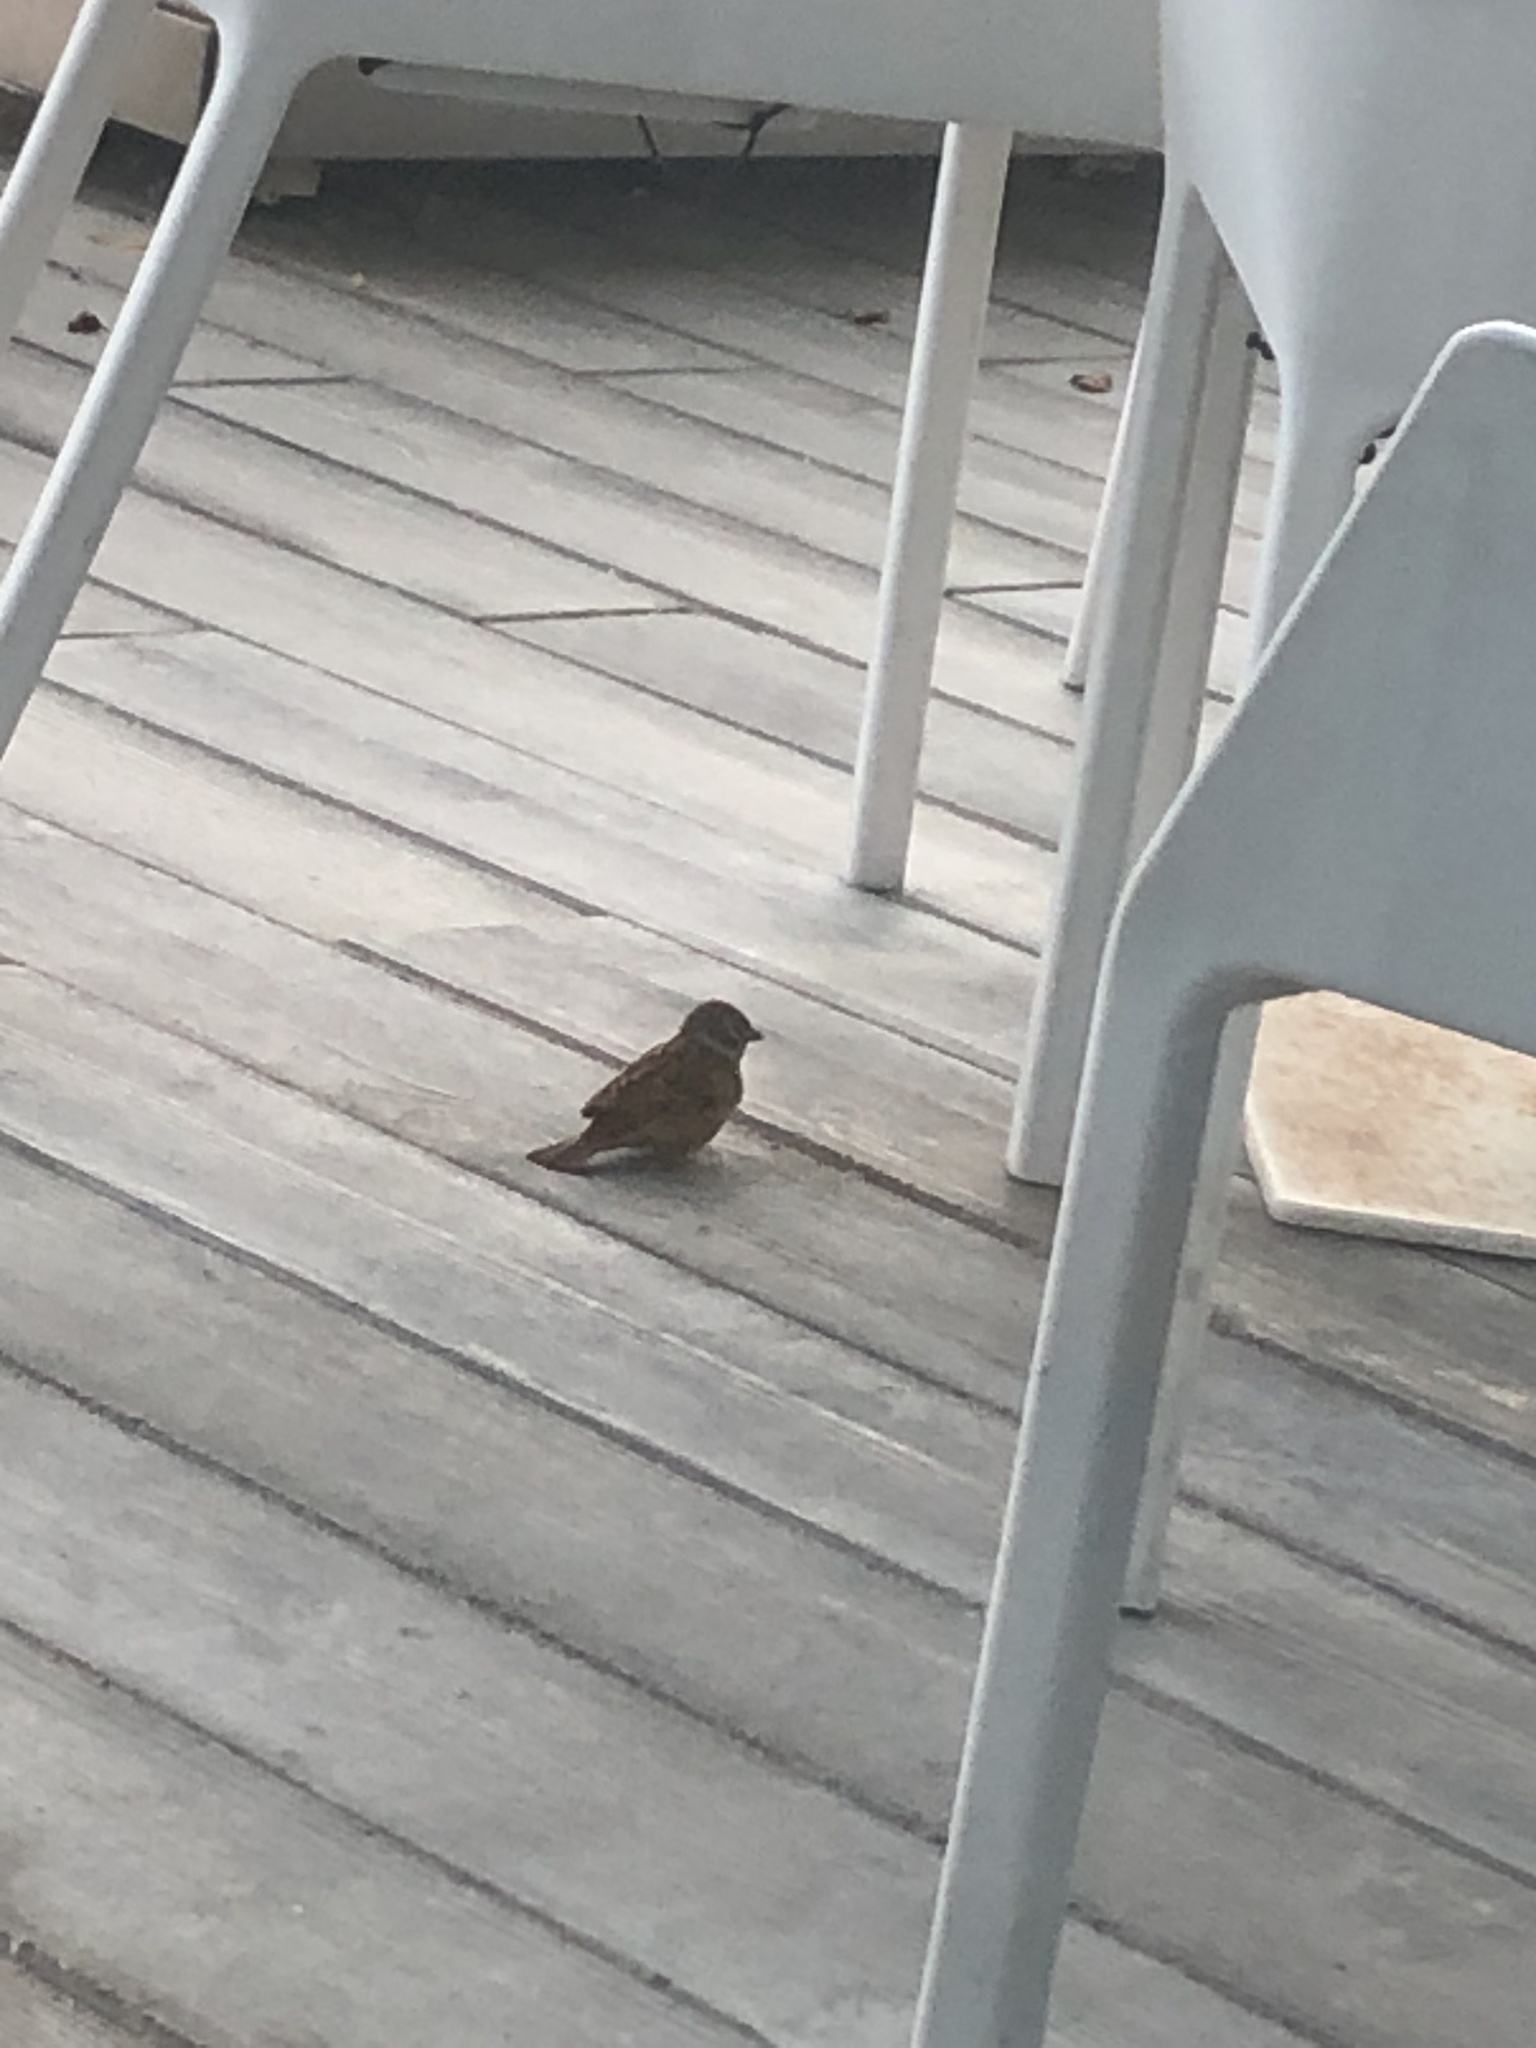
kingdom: Animalia
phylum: Chordata
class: Aves
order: Passeriformes
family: Passeridae
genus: Passer
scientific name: Passer montanus
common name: Eurasian tree sparrow
